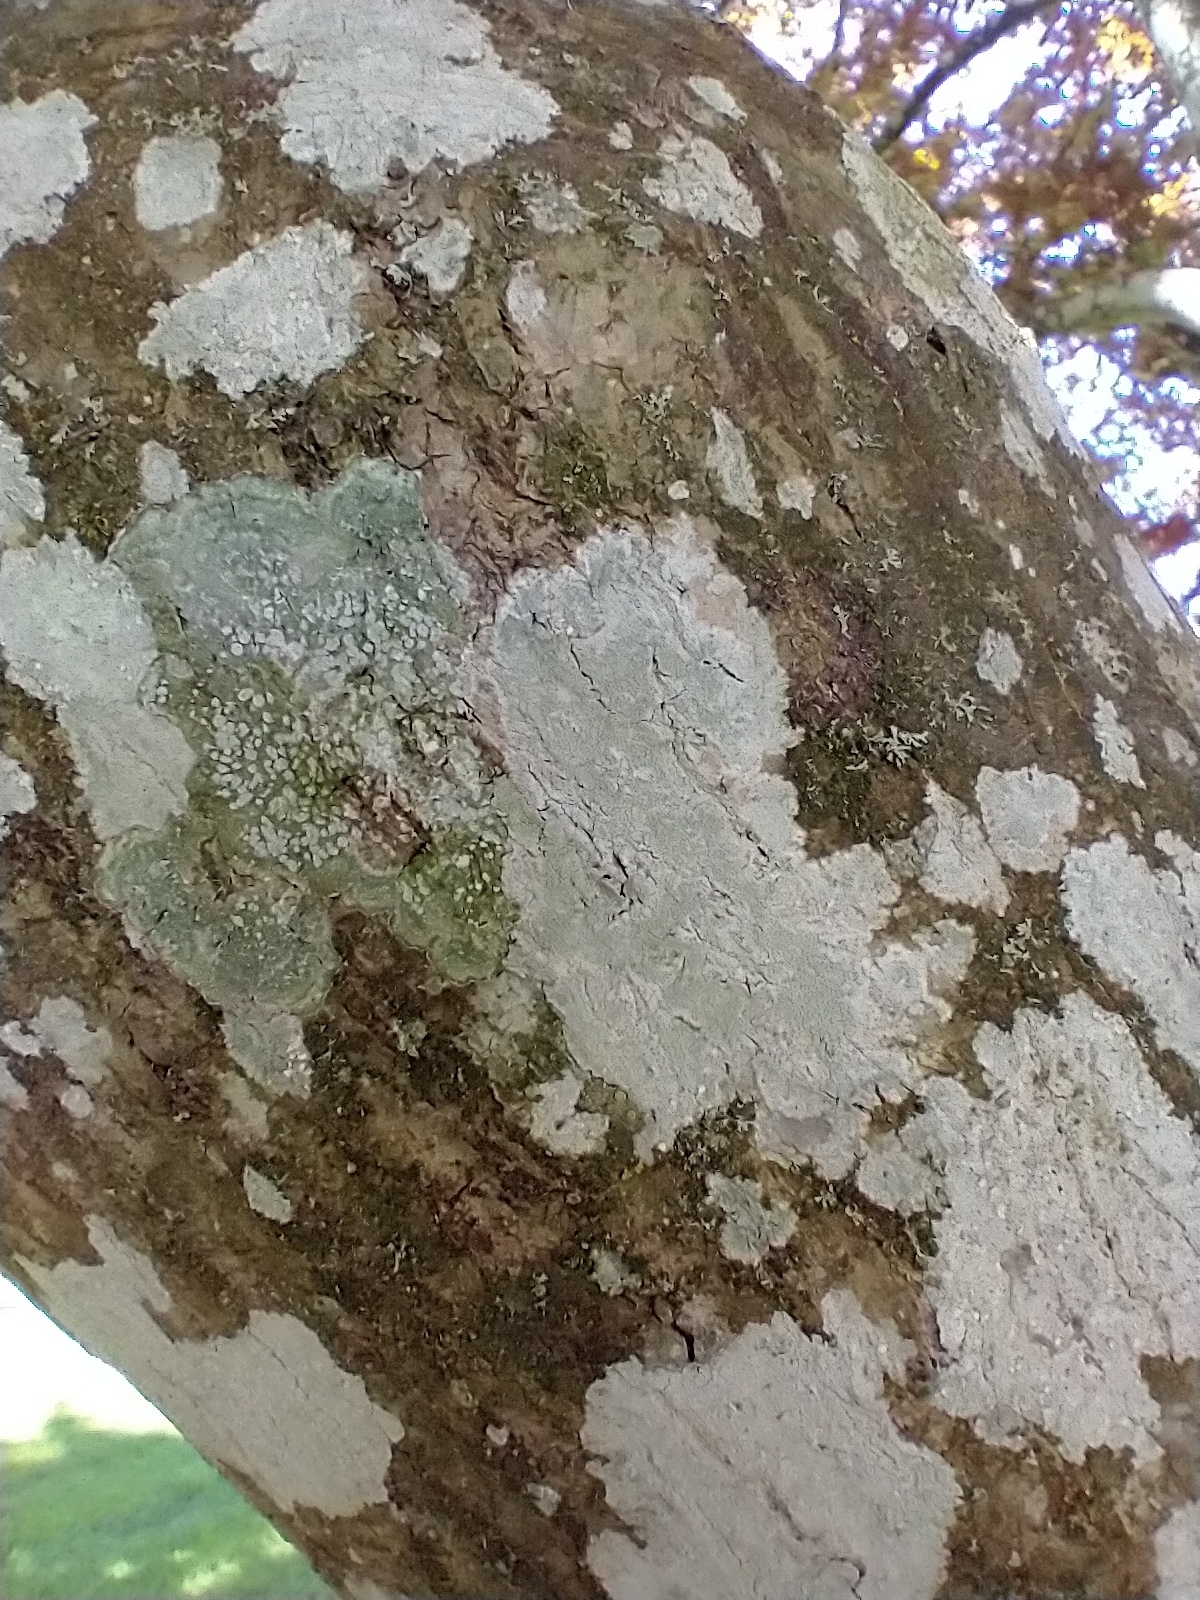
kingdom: Fungi
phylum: Ascomycota
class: Lecanoromycetes
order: Ostropales
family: Phlyctidaceae
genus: Phlyctis
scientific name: Phlyctis argena
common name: Whitewash lichen
